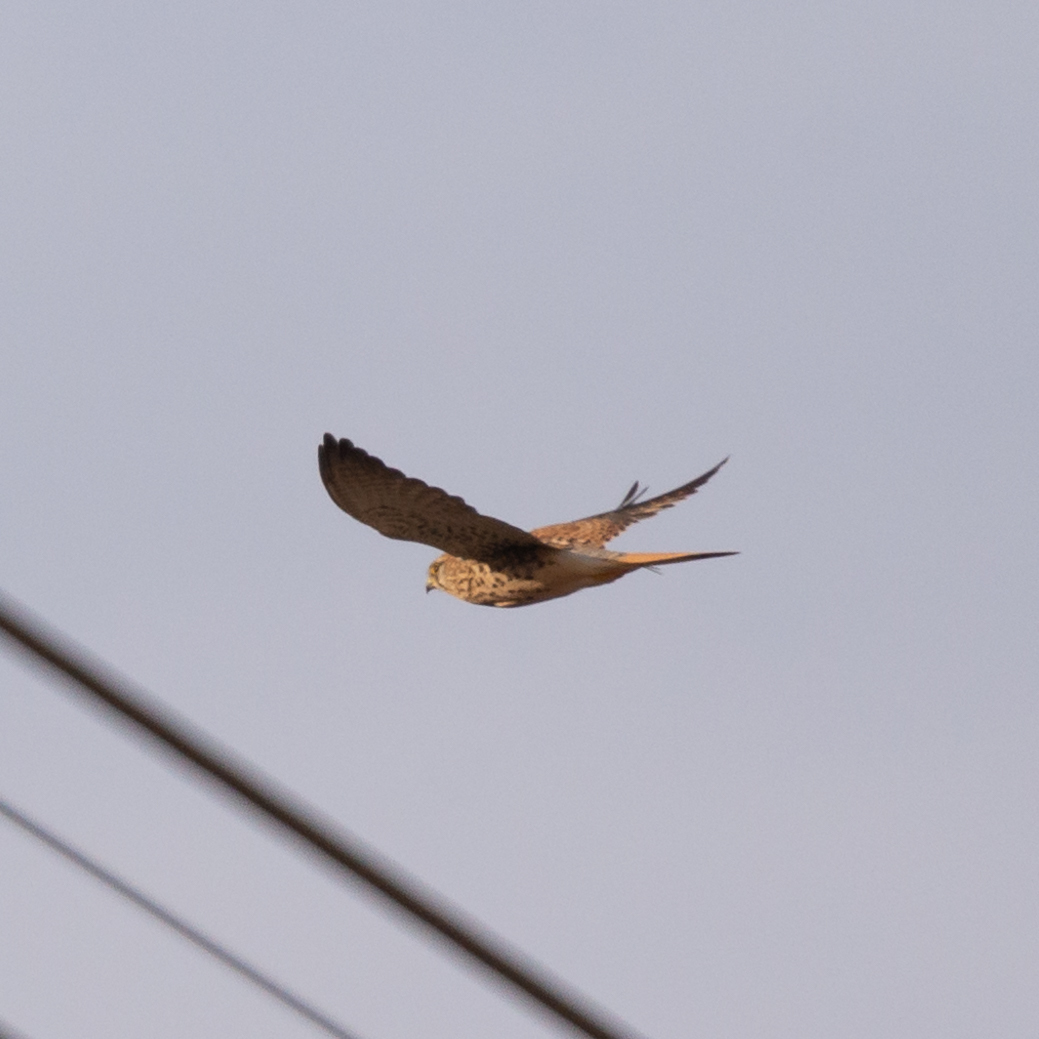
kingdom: Animalia
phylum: Chordata
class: Aves
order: Falconiformes
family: Falconidae
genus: Falco
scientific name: Falco tinnunculus
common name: Common kestrel
